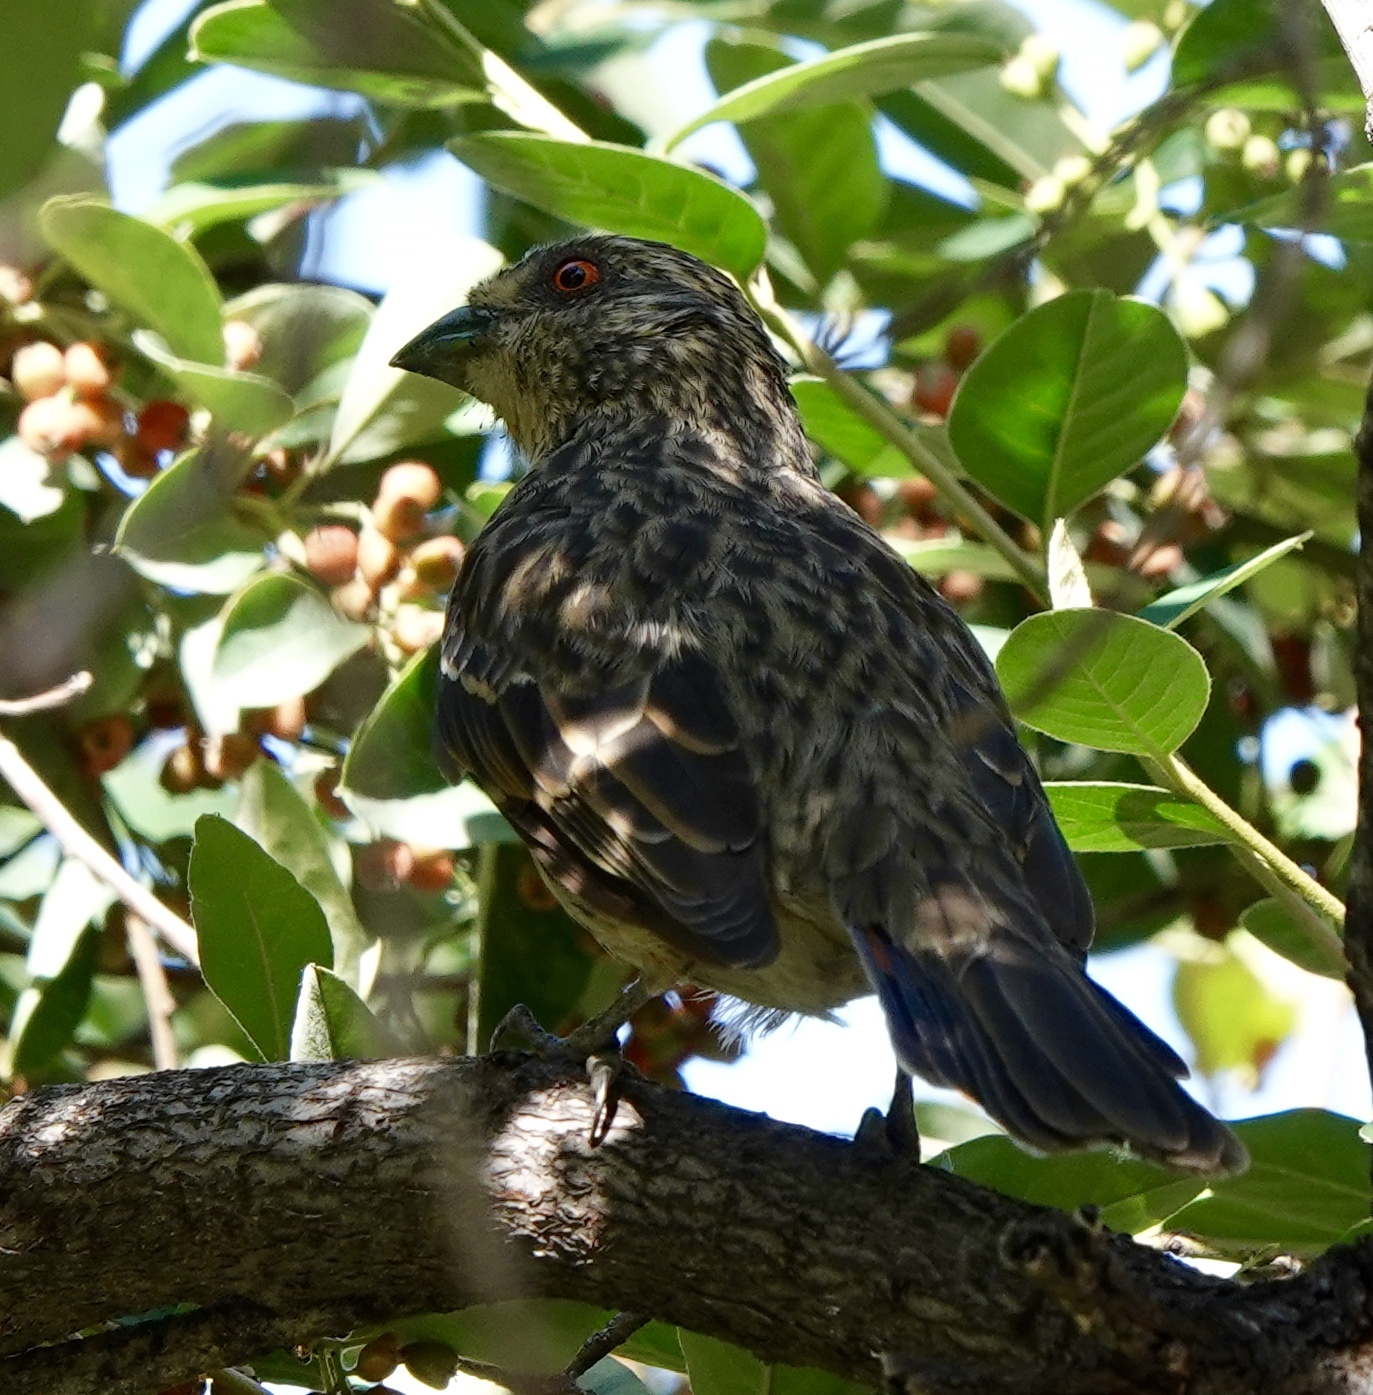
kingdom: Animalia
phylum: Chordata
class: Aves
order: Passeriformes
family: Cotingidae
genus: Phytotoma
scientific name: Phytotoma rara
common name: Rufous-tailed plantcutter
